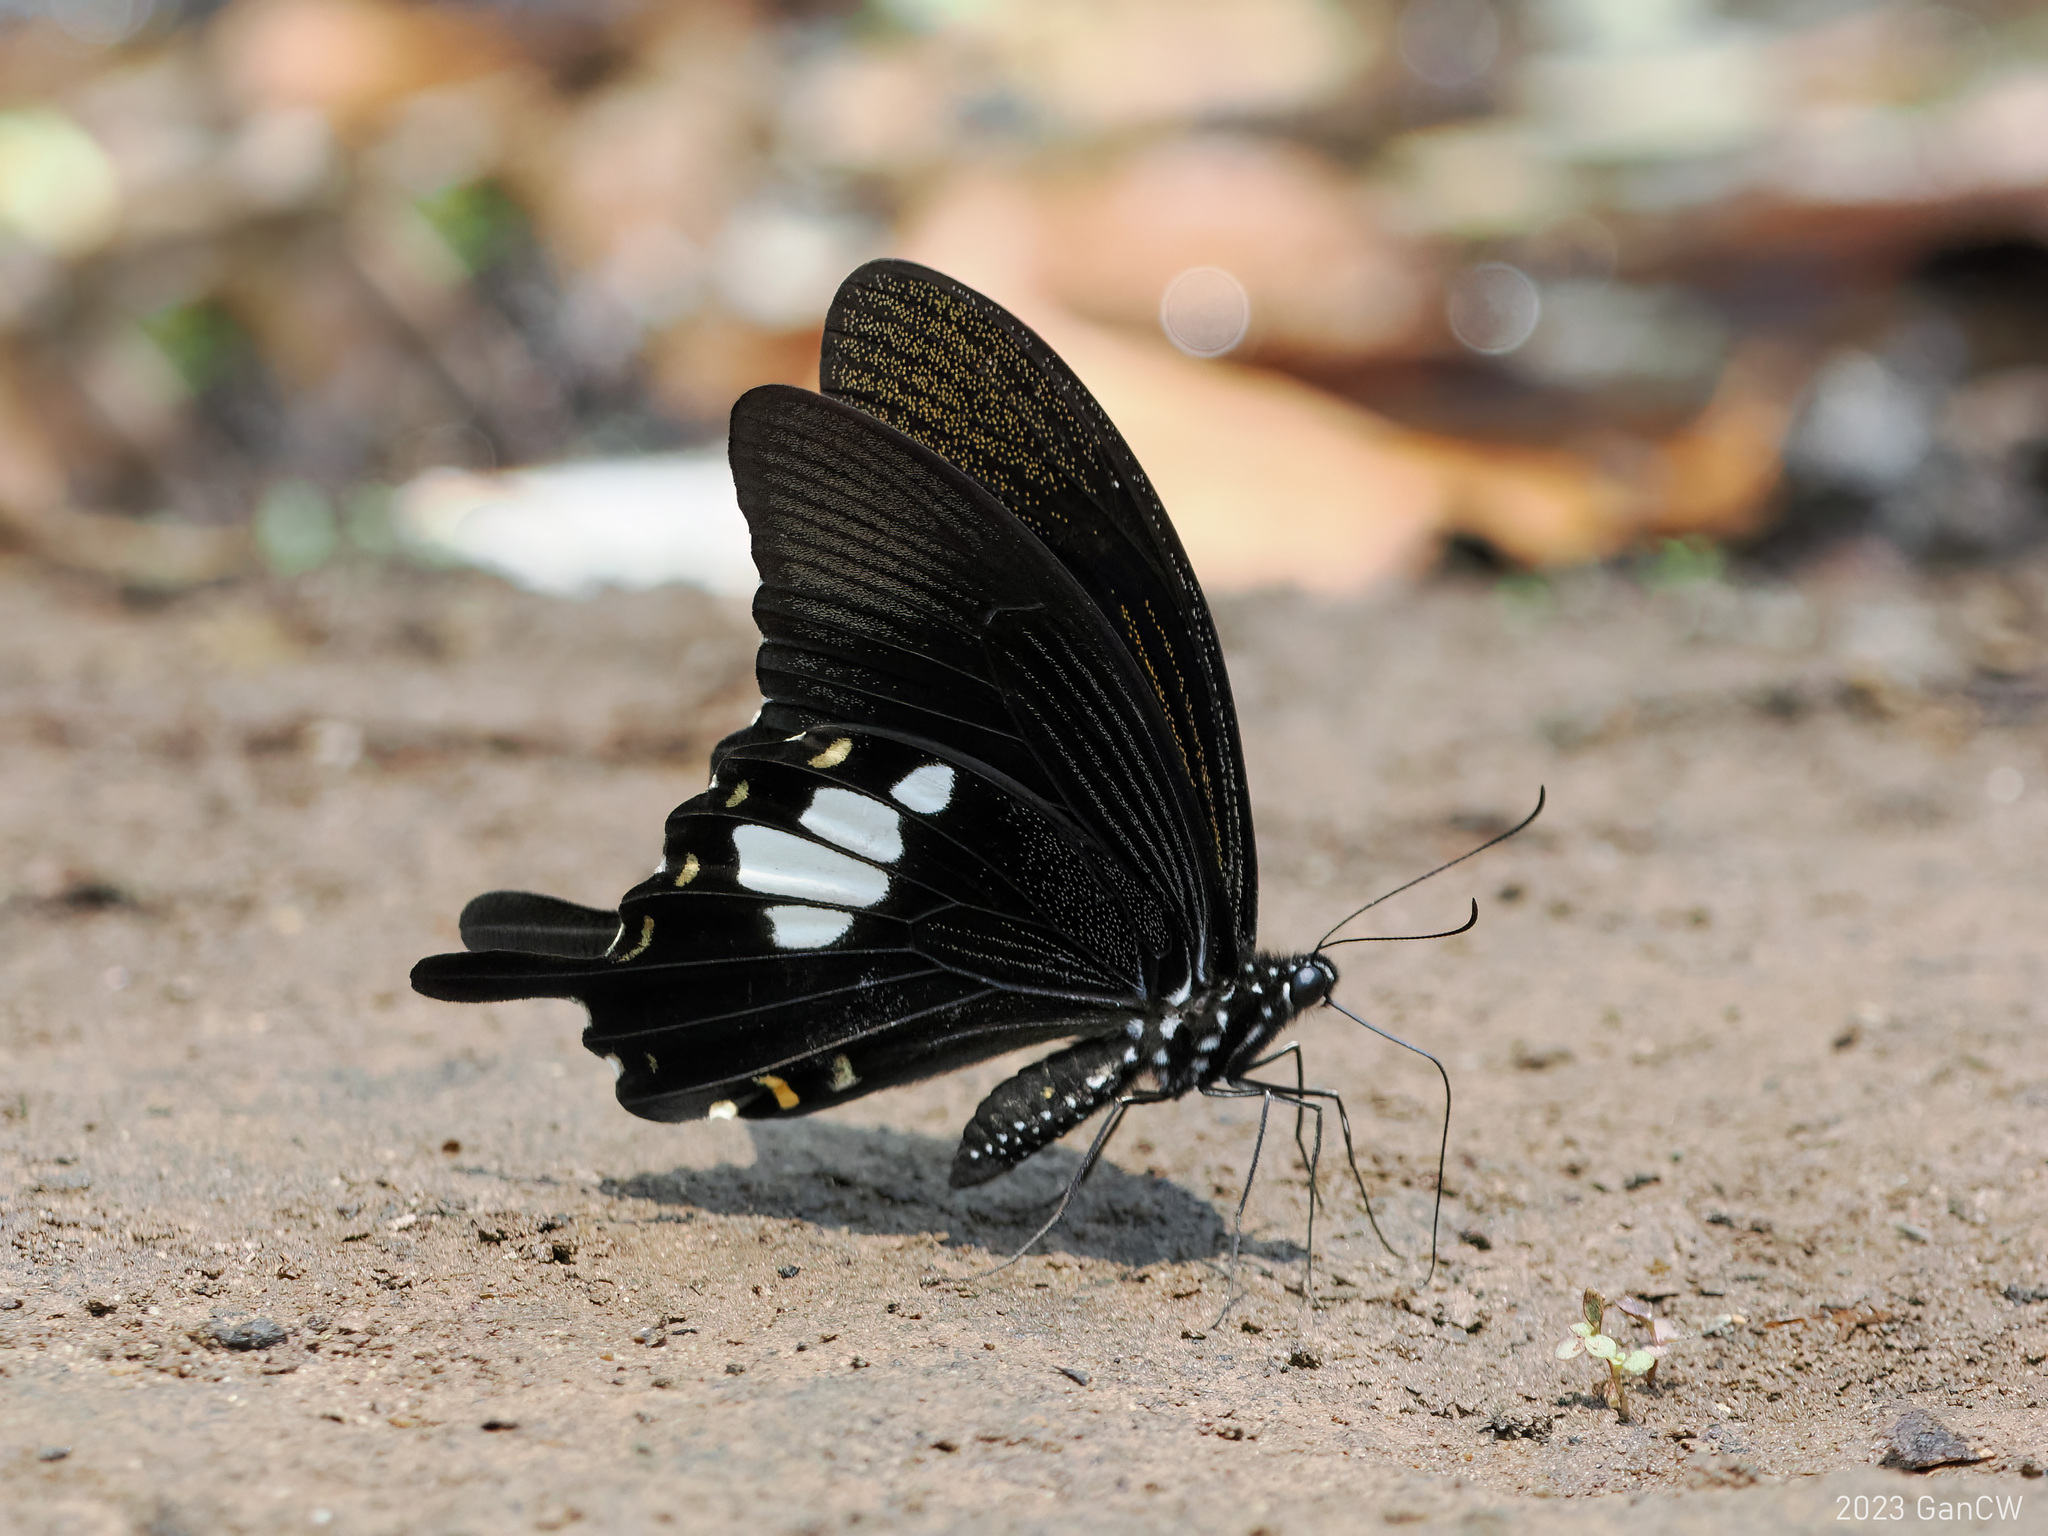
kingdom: Animalia
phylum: Arthropoda
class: Insecta
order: Lepidoptera
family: Papilionidae
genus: Papilio
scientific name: Papilio nephelus
